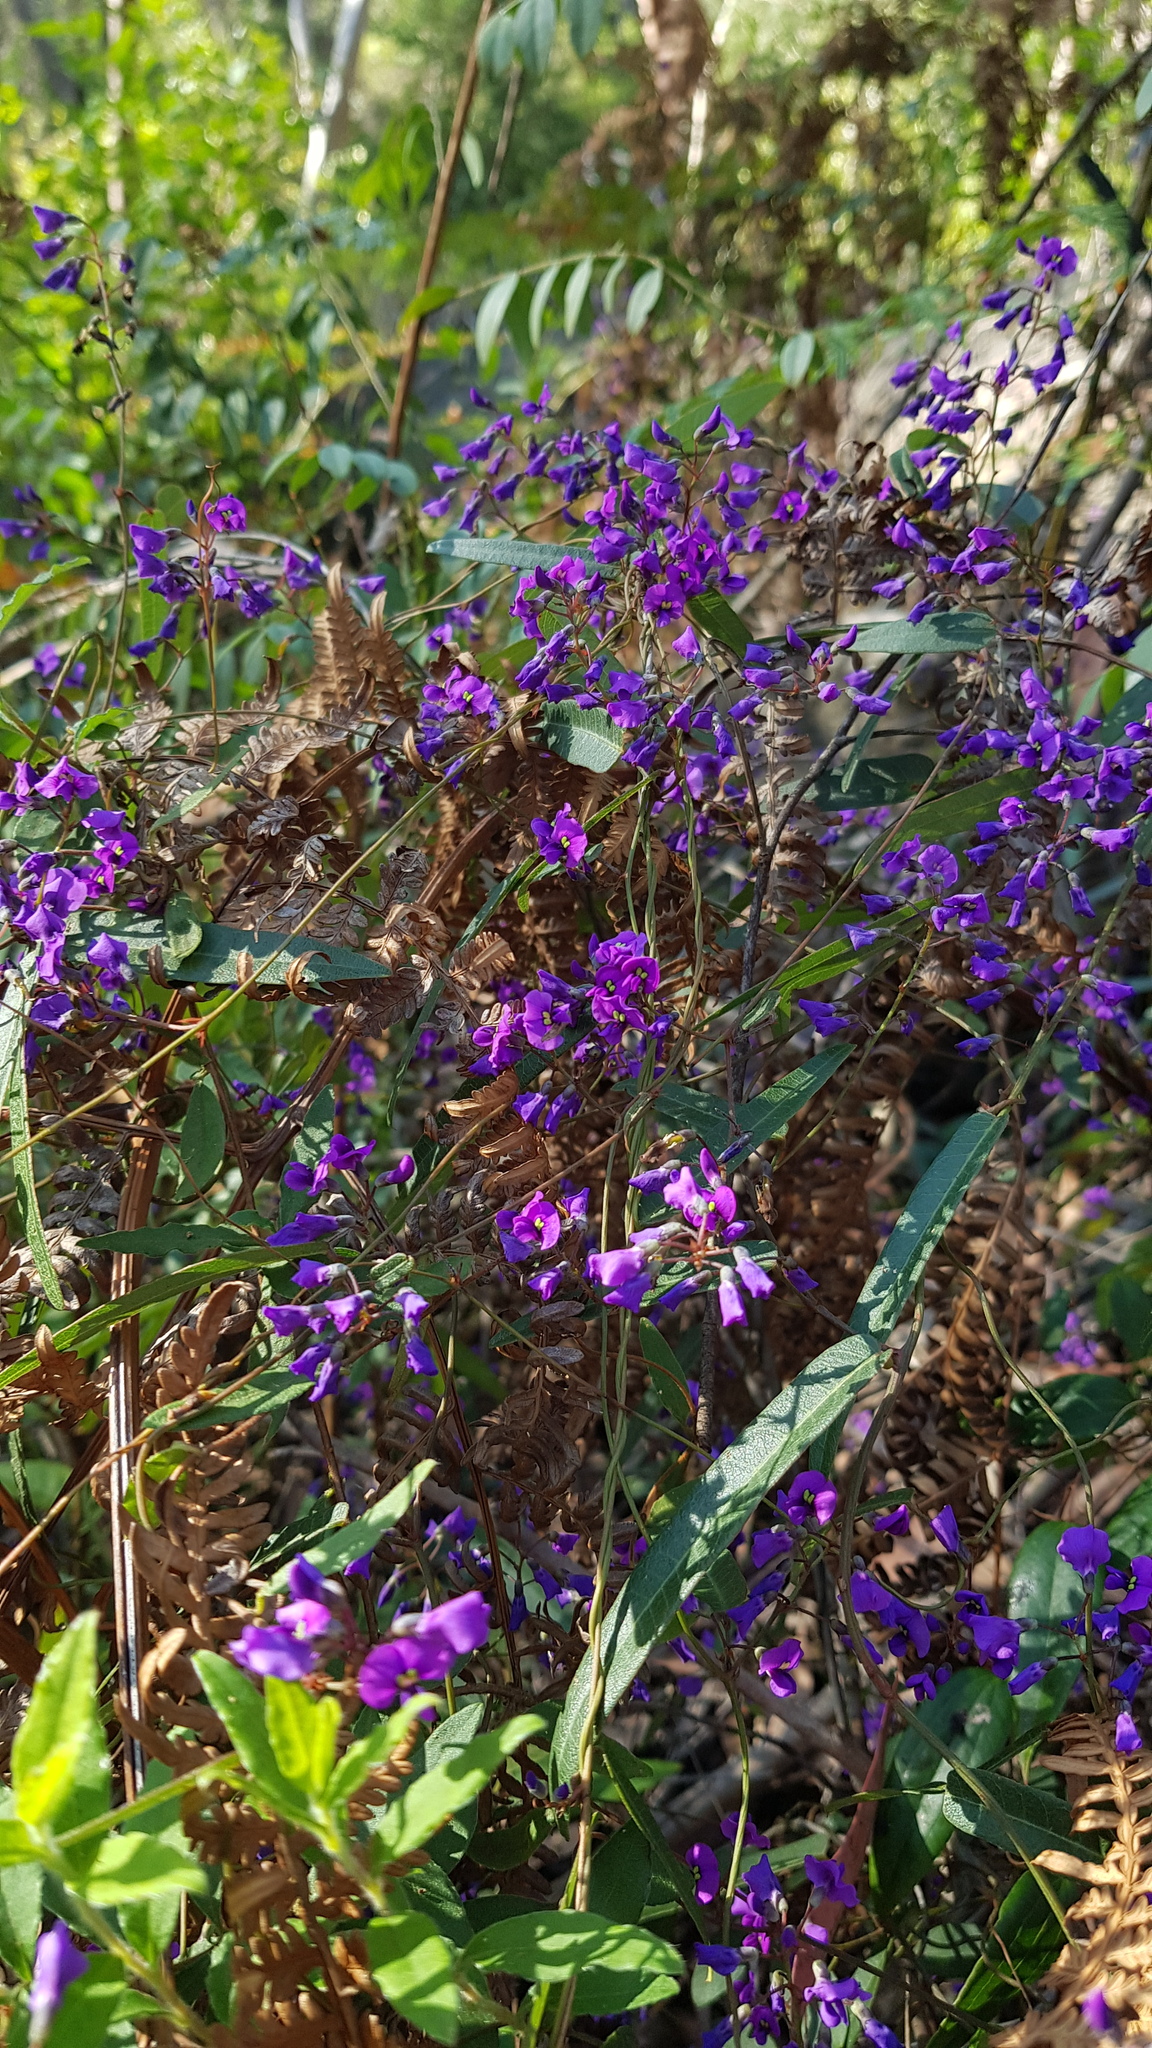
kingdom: Plantae
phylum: Tracheophyta
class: Magnoliopsida
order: Fabales
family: Fabaceae
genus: Hardenbergia
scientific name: Hardenbergia violacea
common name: Coral-pea
